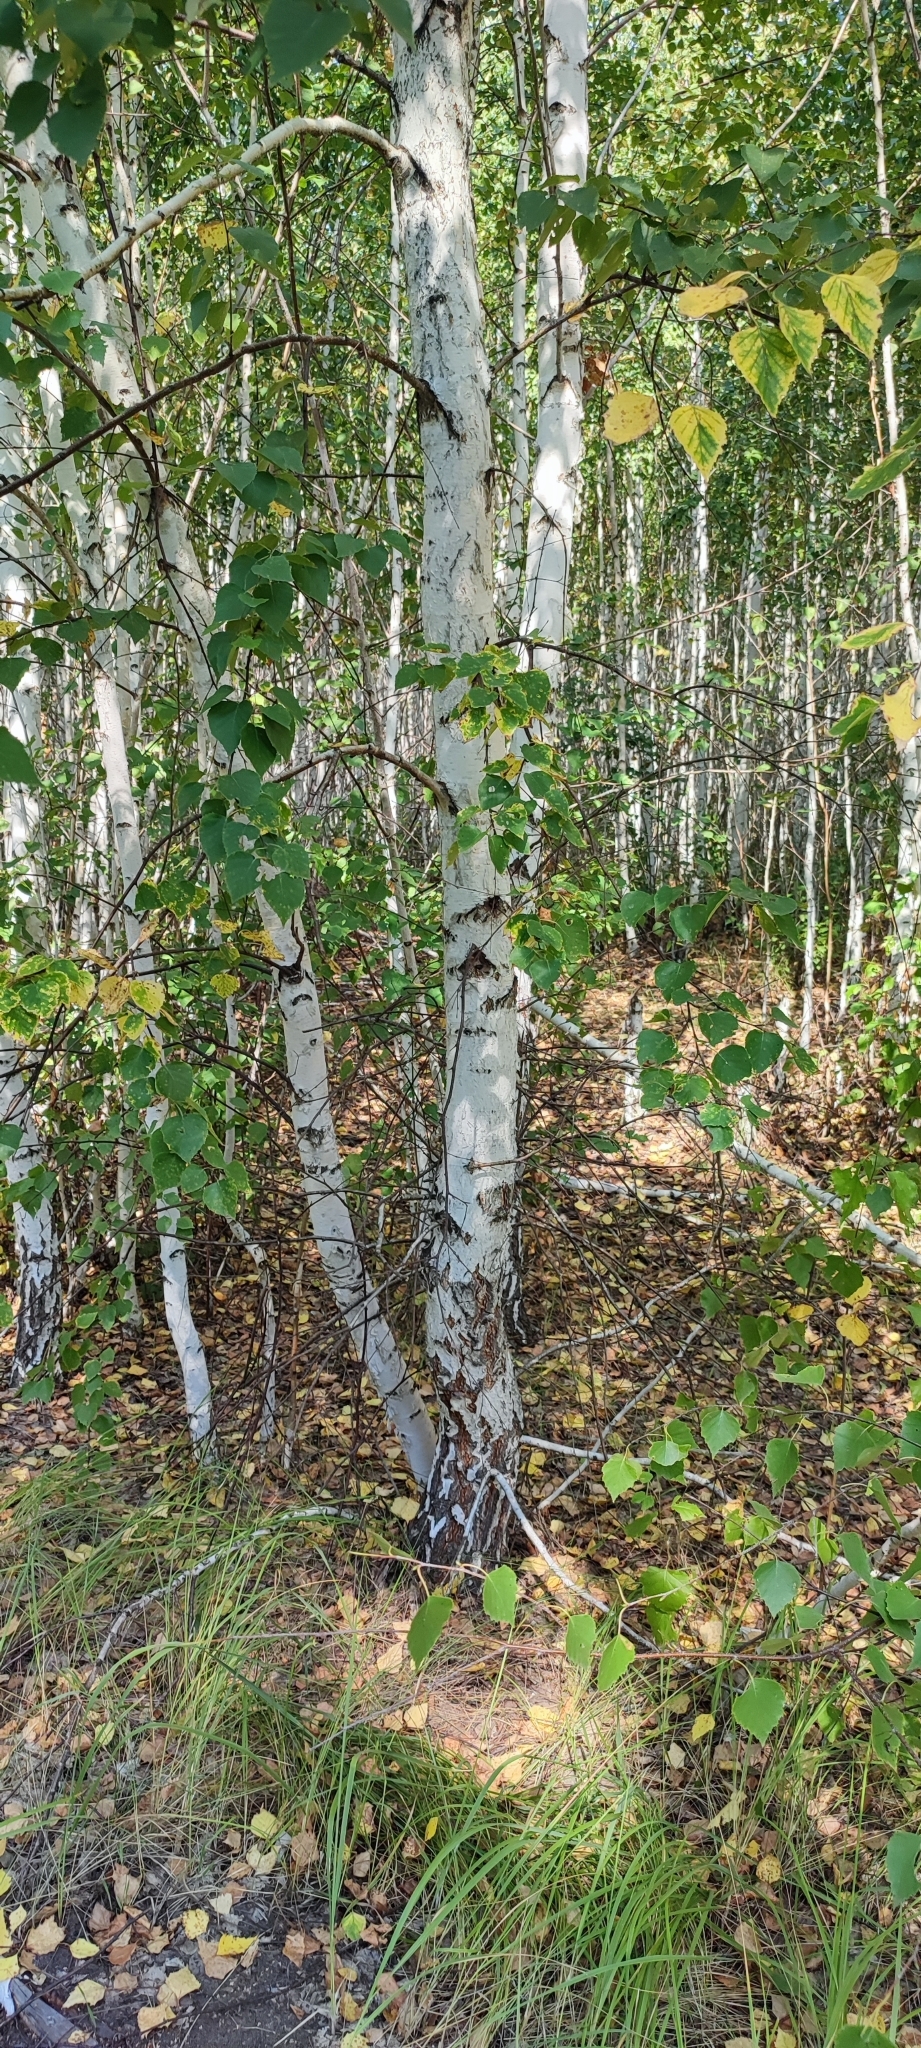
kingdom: Plantae
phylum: Tracheophyta
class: Magnoliopsida
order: Fagales
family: Betulaceae
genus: Betula
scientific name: Betula pendula
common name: Silver birch
